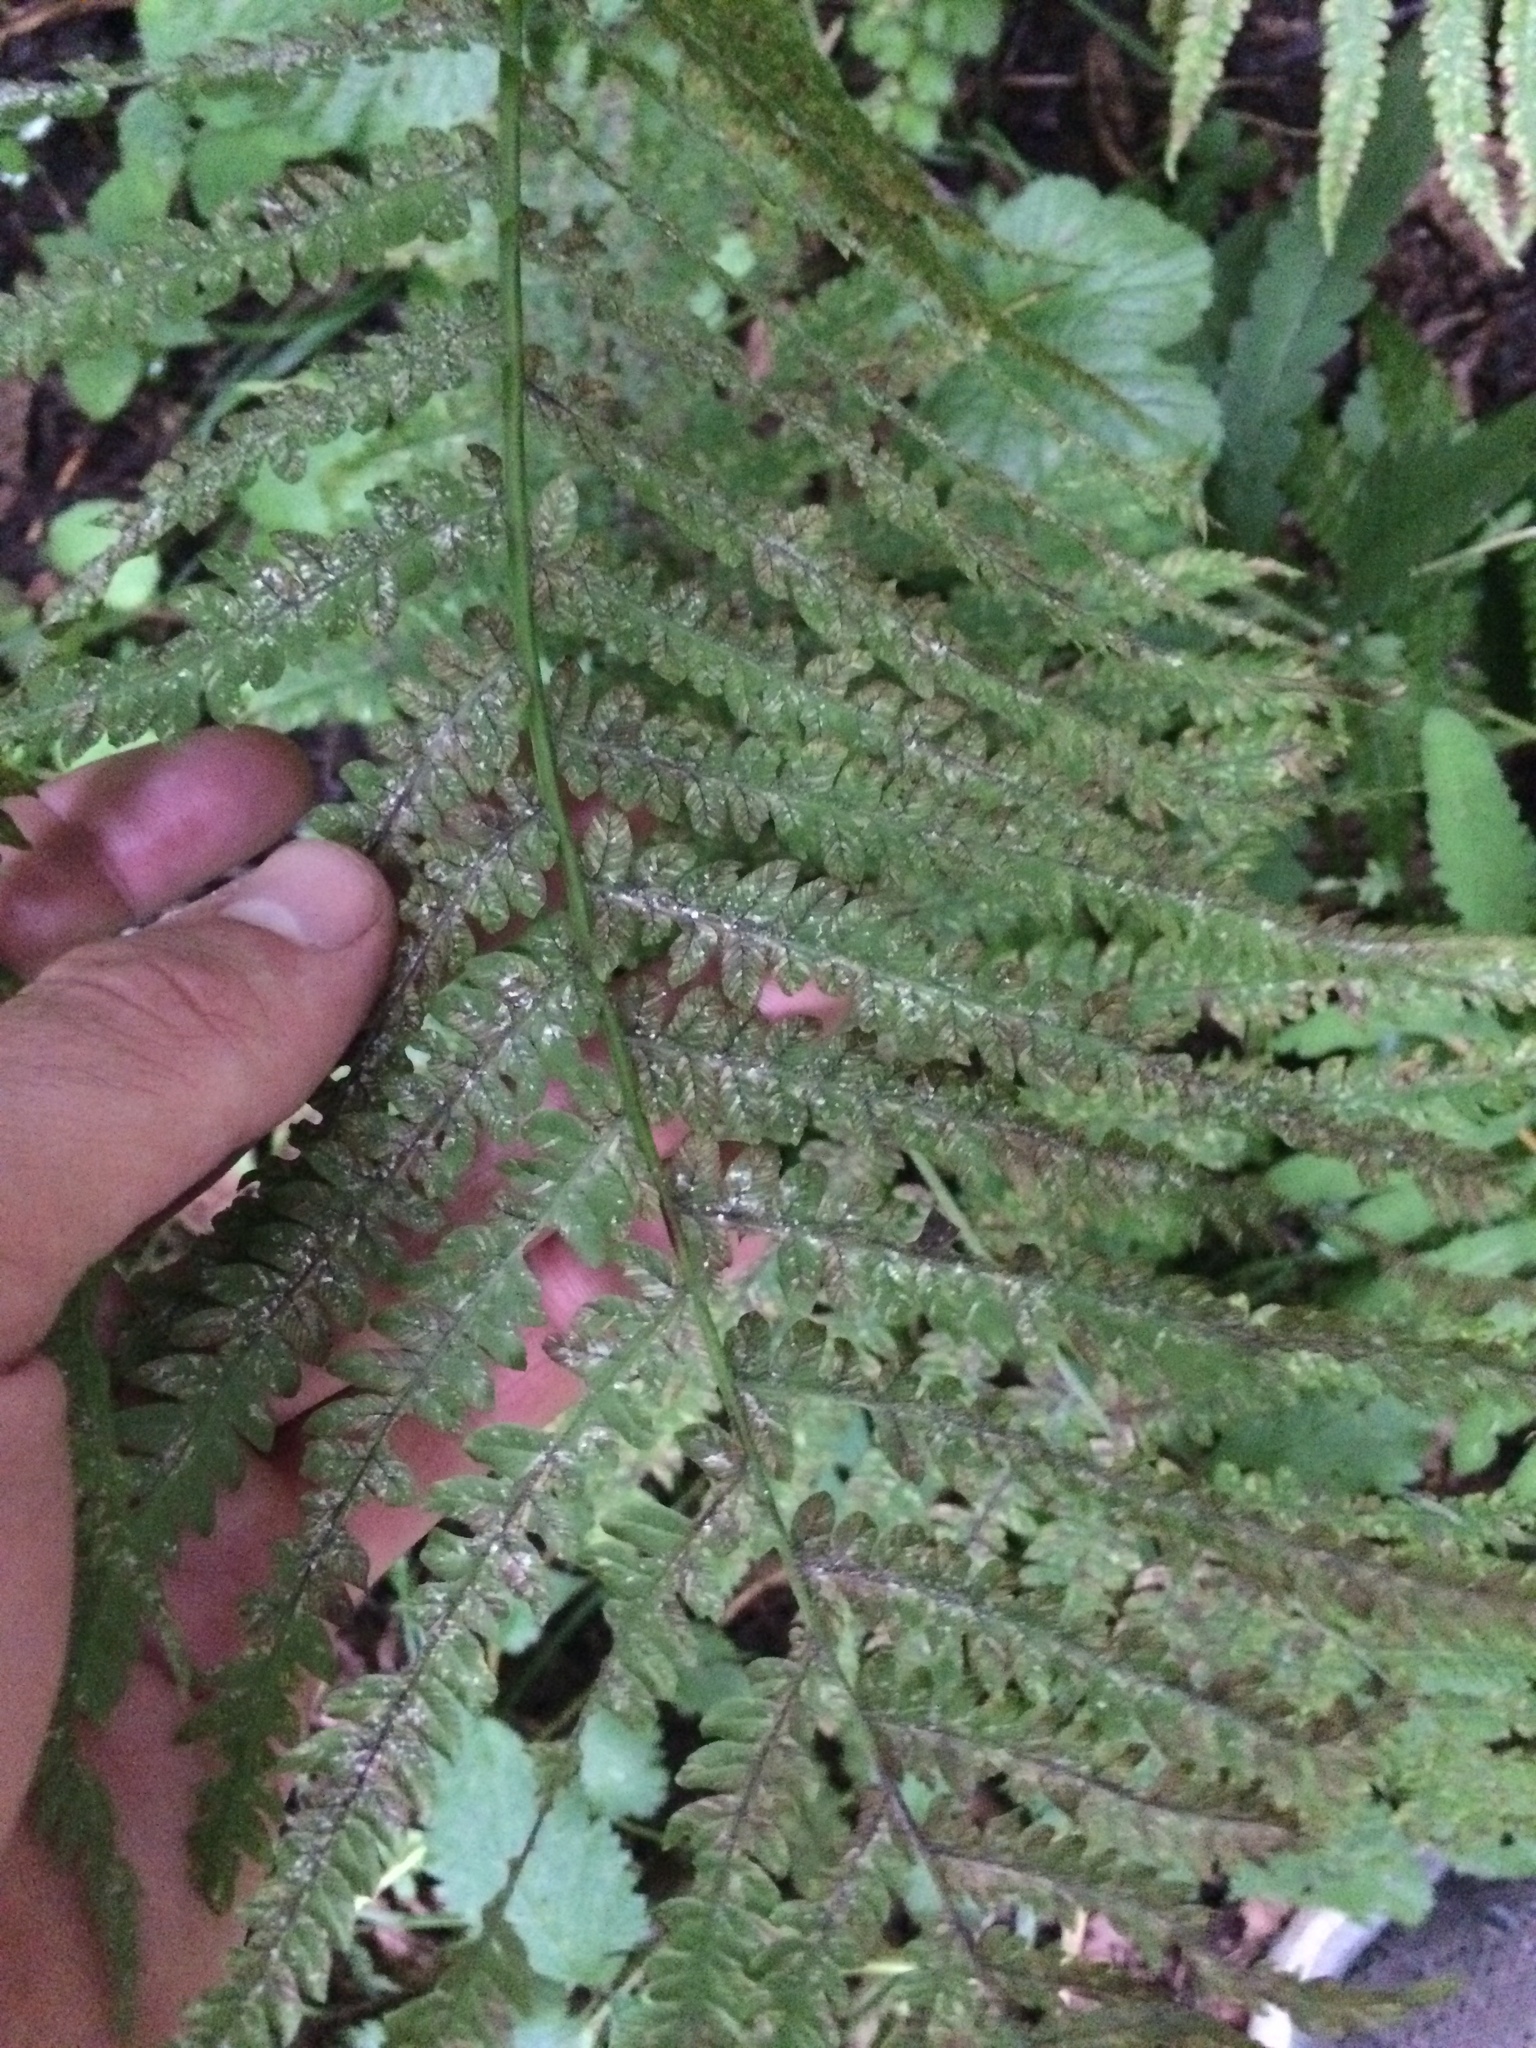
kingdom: Plantae
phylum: Tracheophyta
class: Polypodiopsida
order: Polypodiales
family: Onocleaceae
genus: Matteuccia
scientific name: Matteuccia struthiopteris
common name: Ostrich fern
